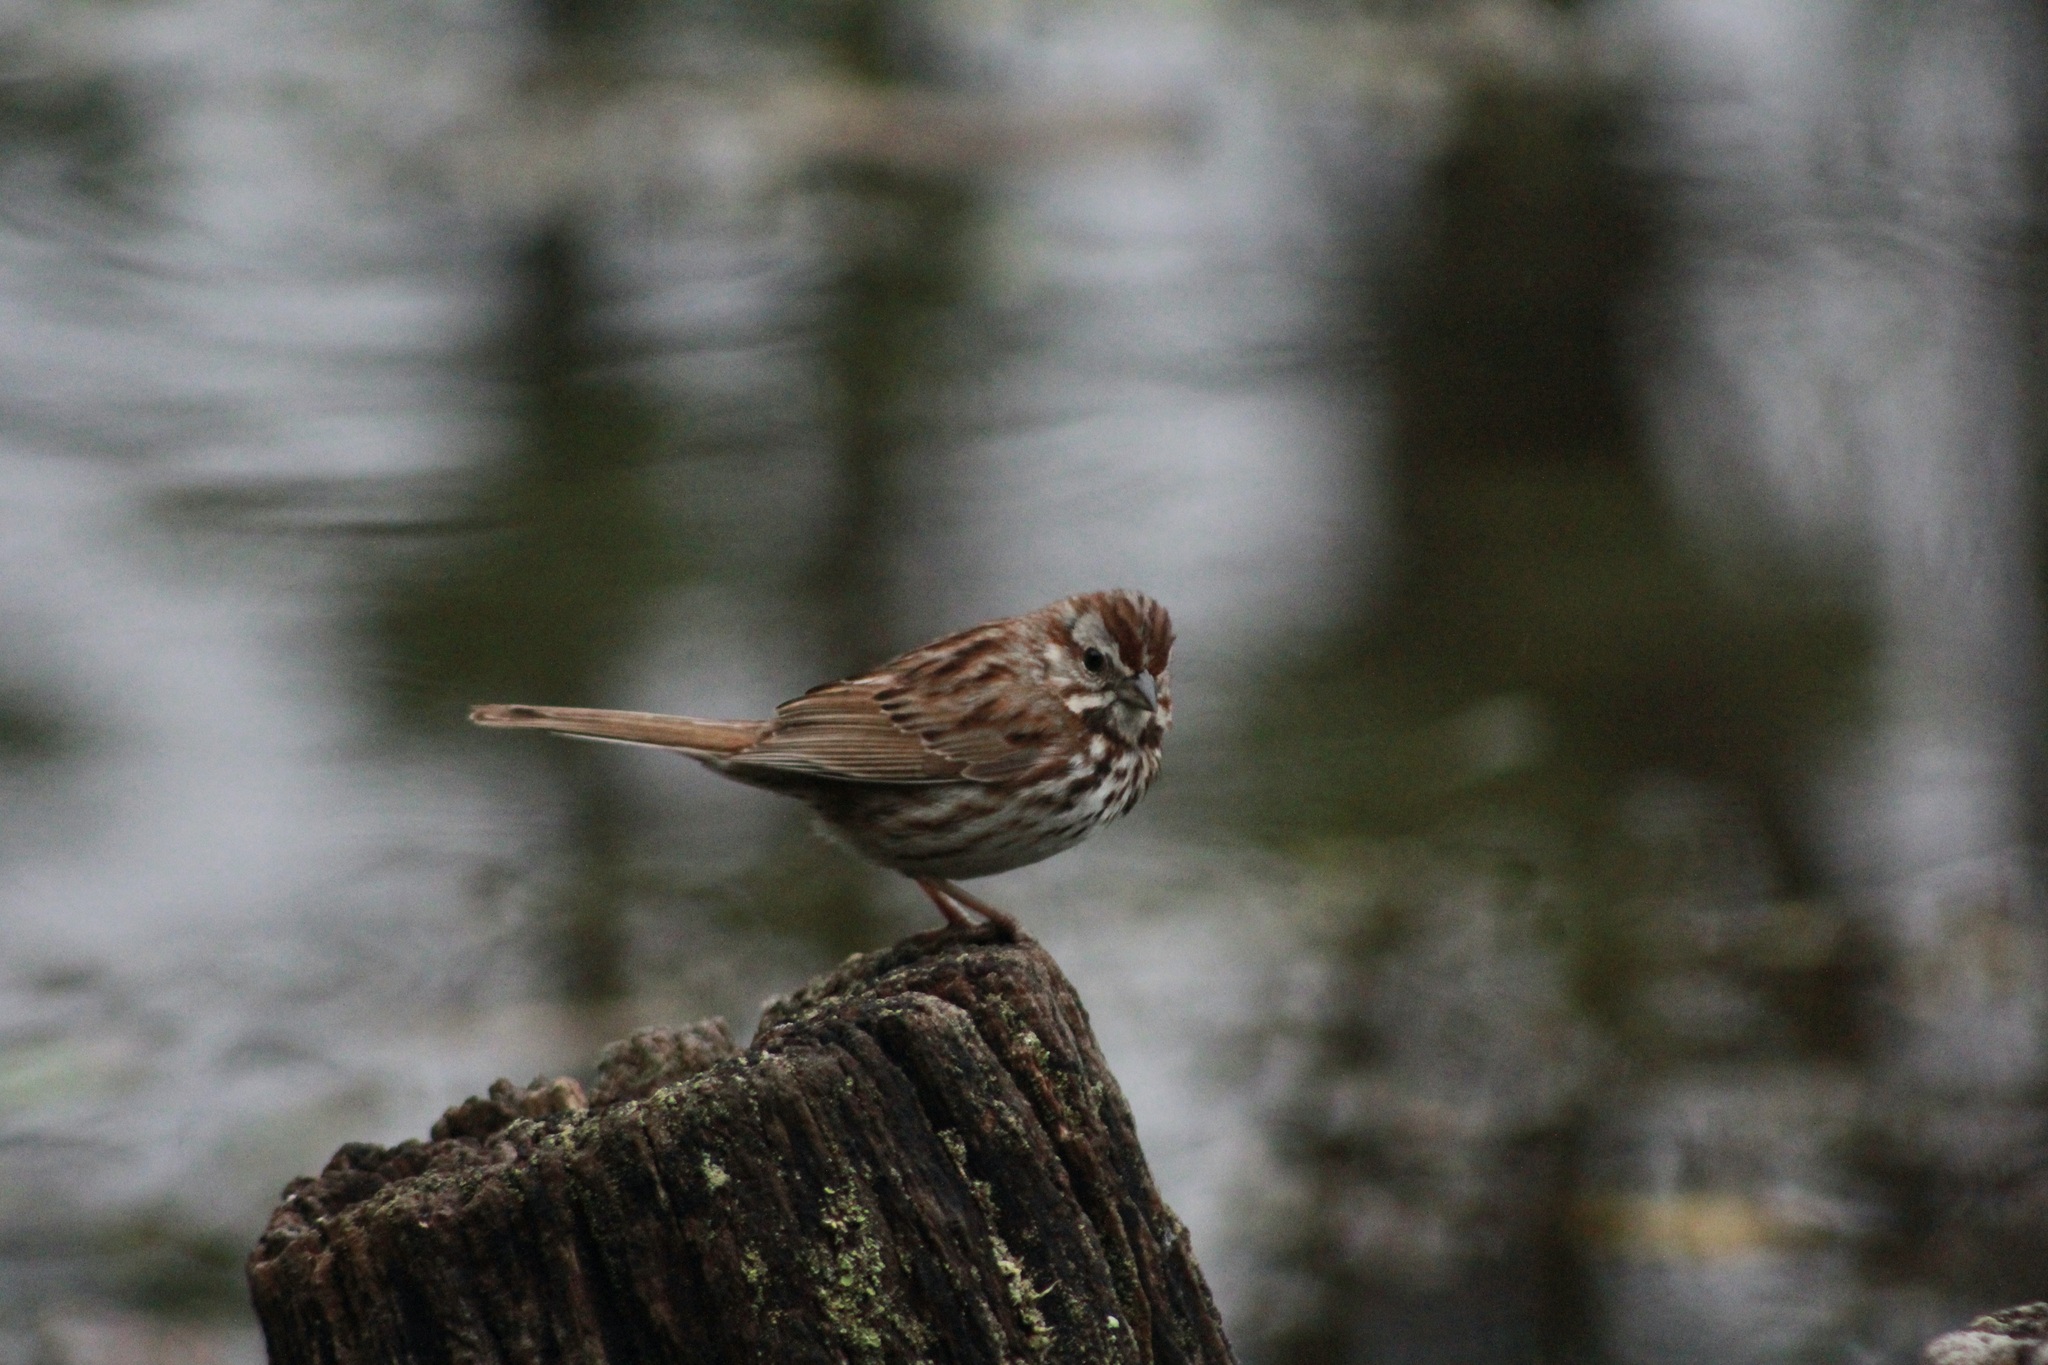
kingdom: Animalia
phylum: Chordata
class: Aves
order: Passeriformes
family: Passerellidae
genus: Melospiza
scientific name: Melospiza melodia
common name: Song sparrow
